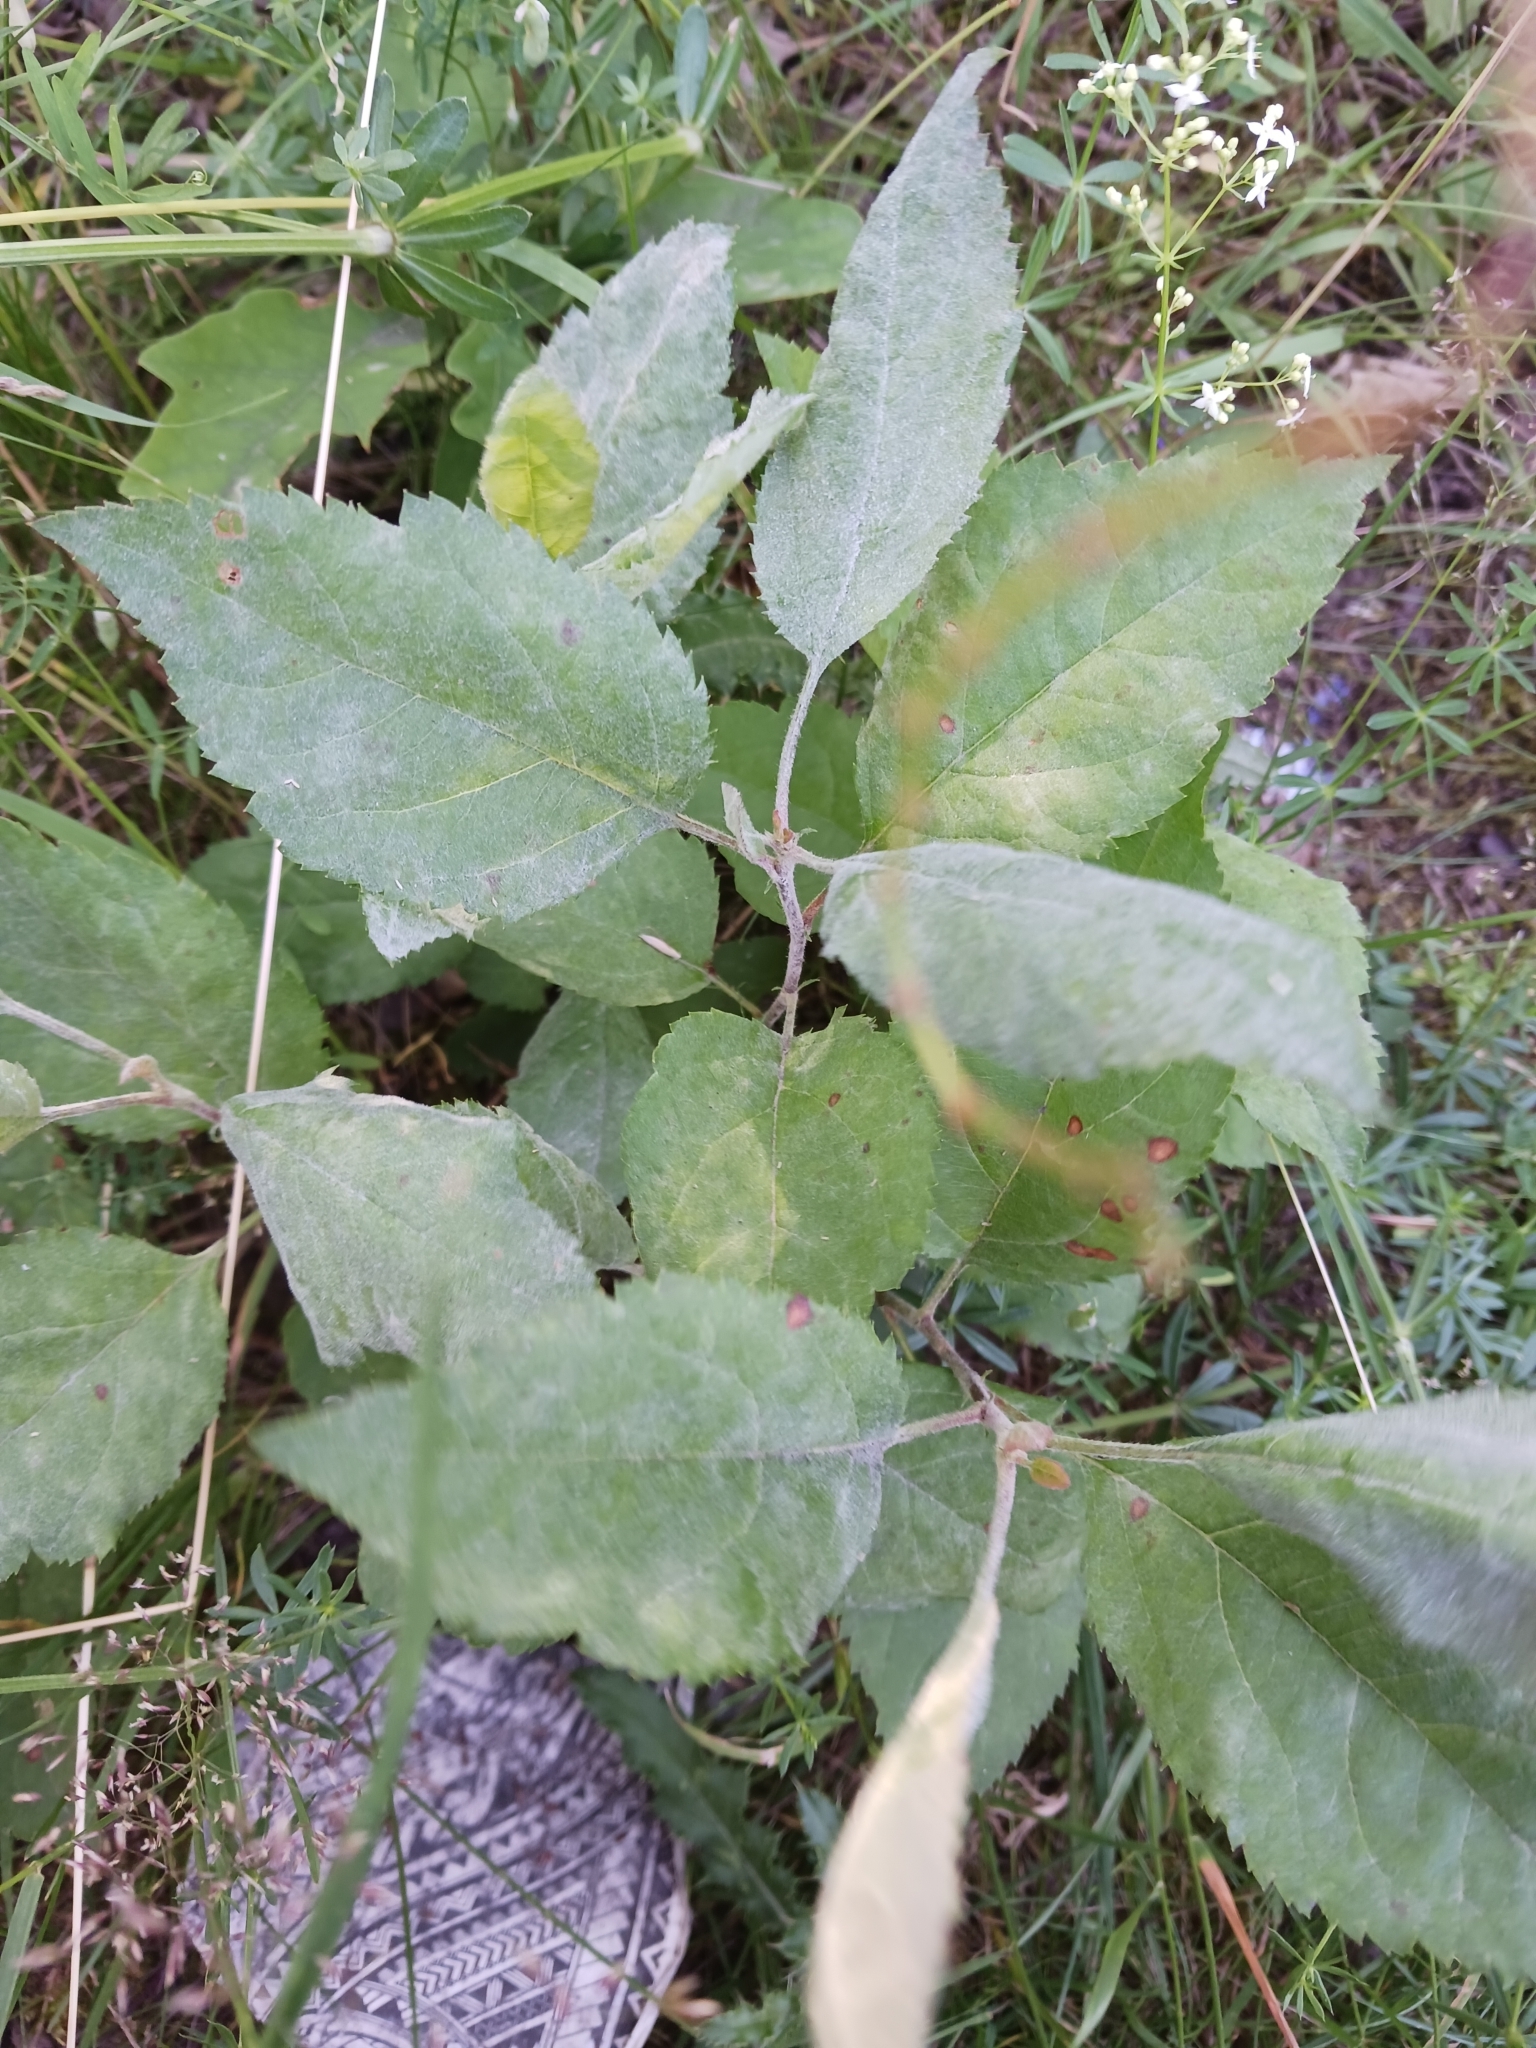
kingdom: Fungi
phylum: Ascomycota
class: Leotiomycetes
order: Helotiales
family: Erysiphaceae
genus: Podosphaera
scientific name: Podosphaera leucotricha
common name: Apple powdery mildew
